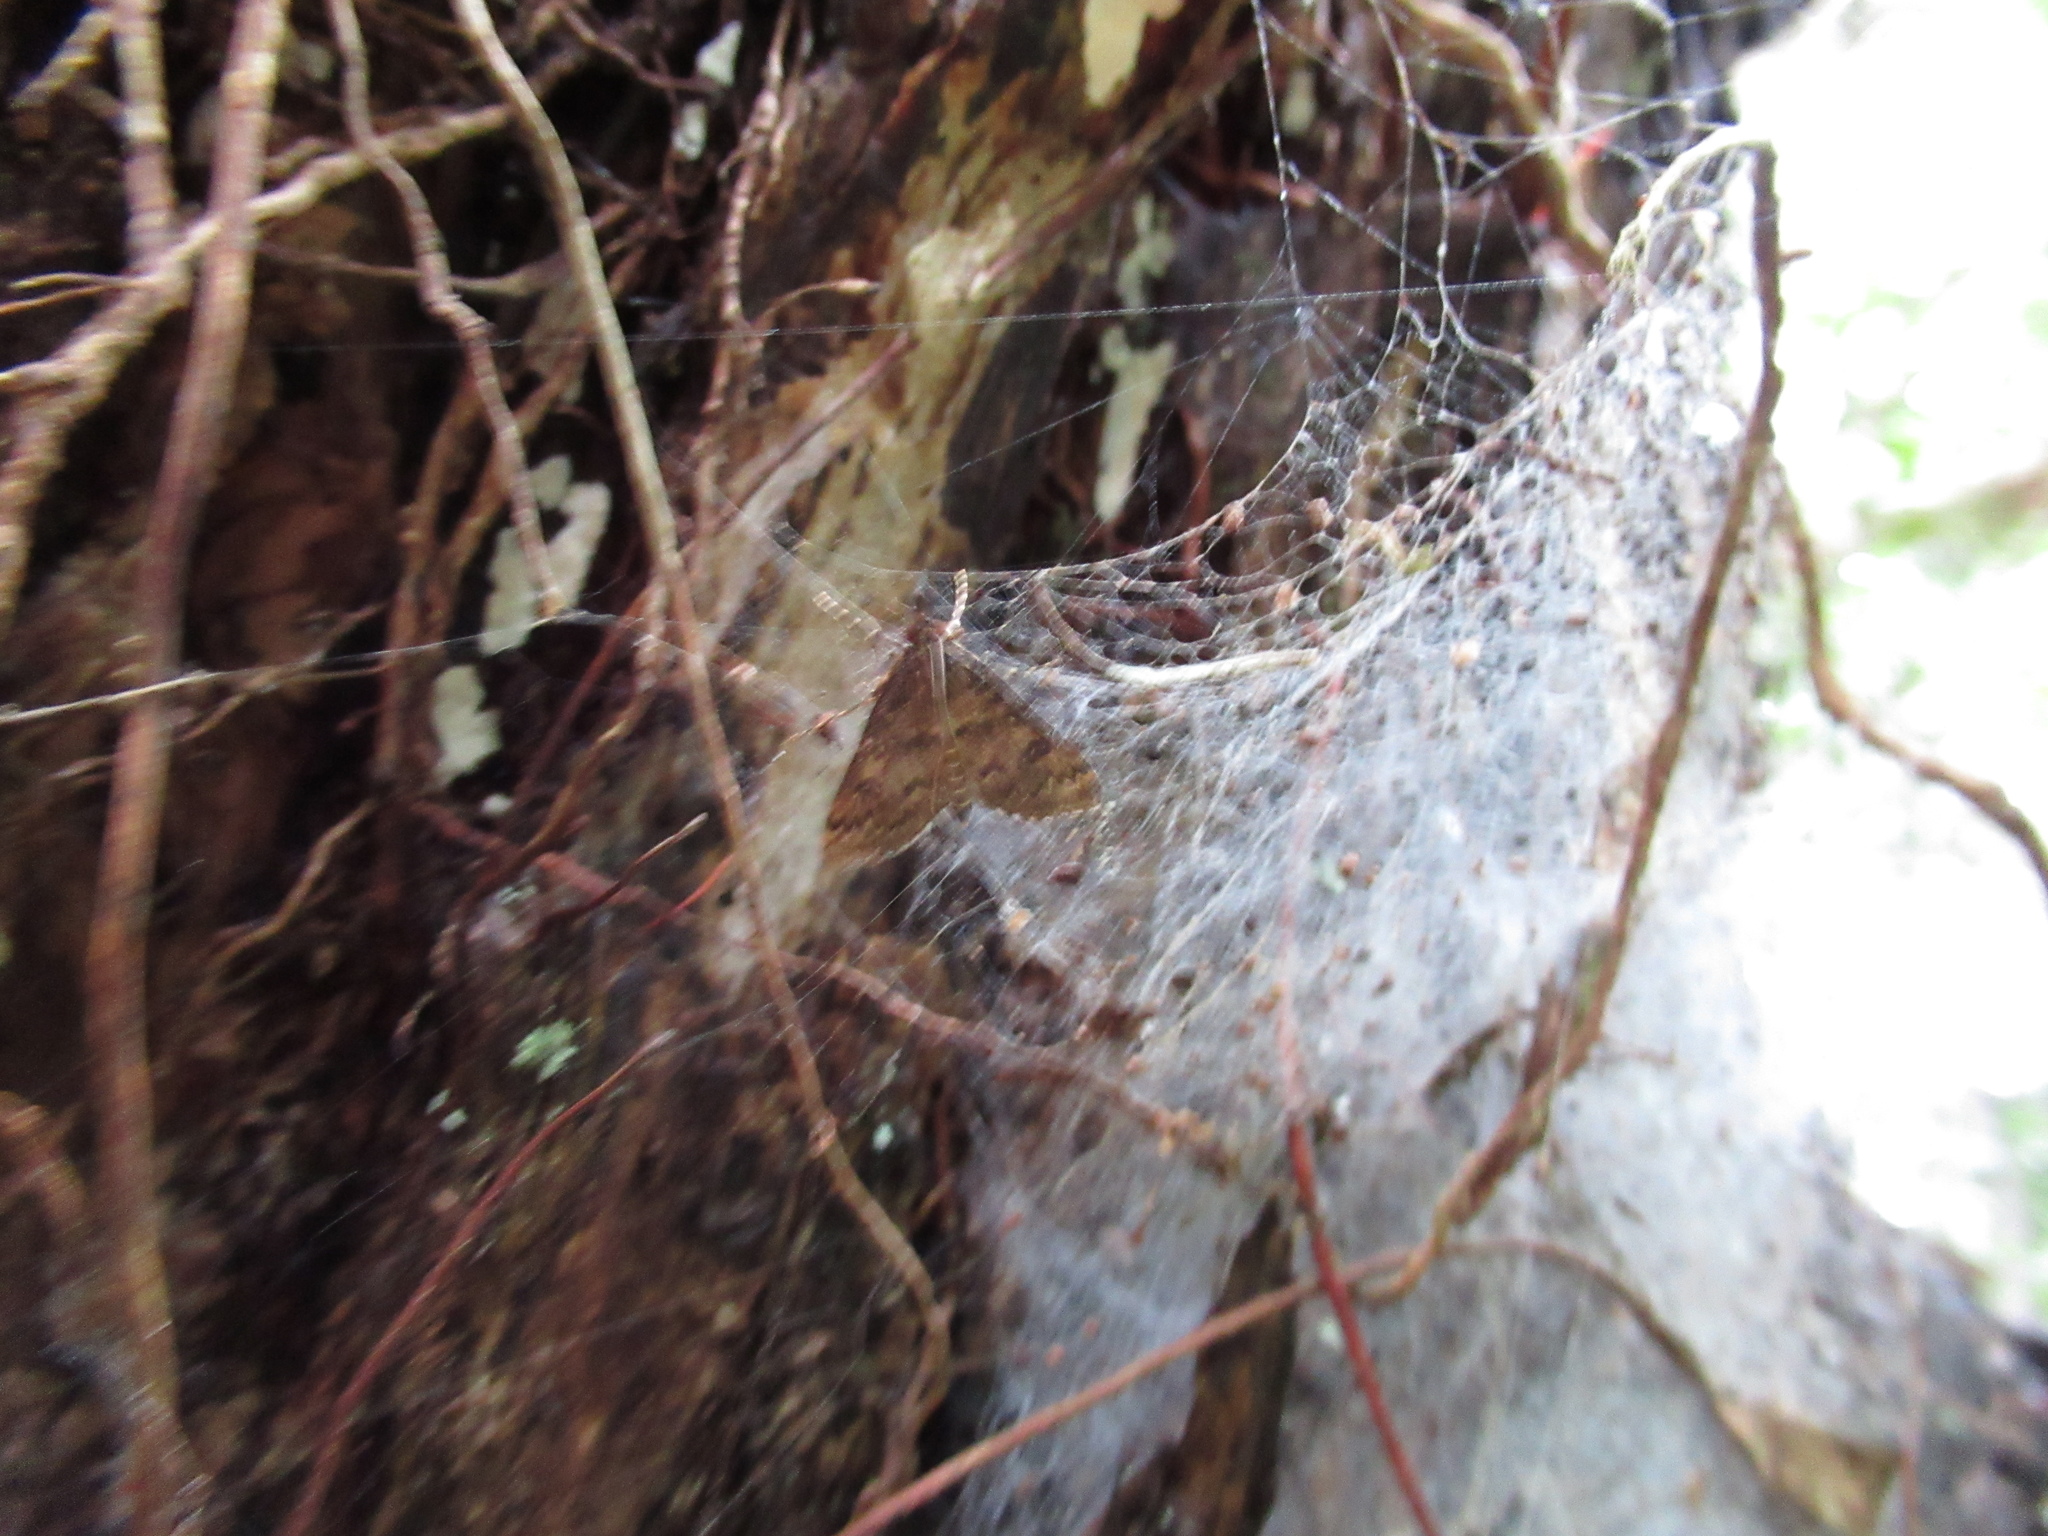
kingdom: Animalia
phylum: Arthropoda
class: Insecta
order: Lepidoptera
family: Crambidae
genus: Loxostege
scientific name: Loxostege Proternia philocapna
